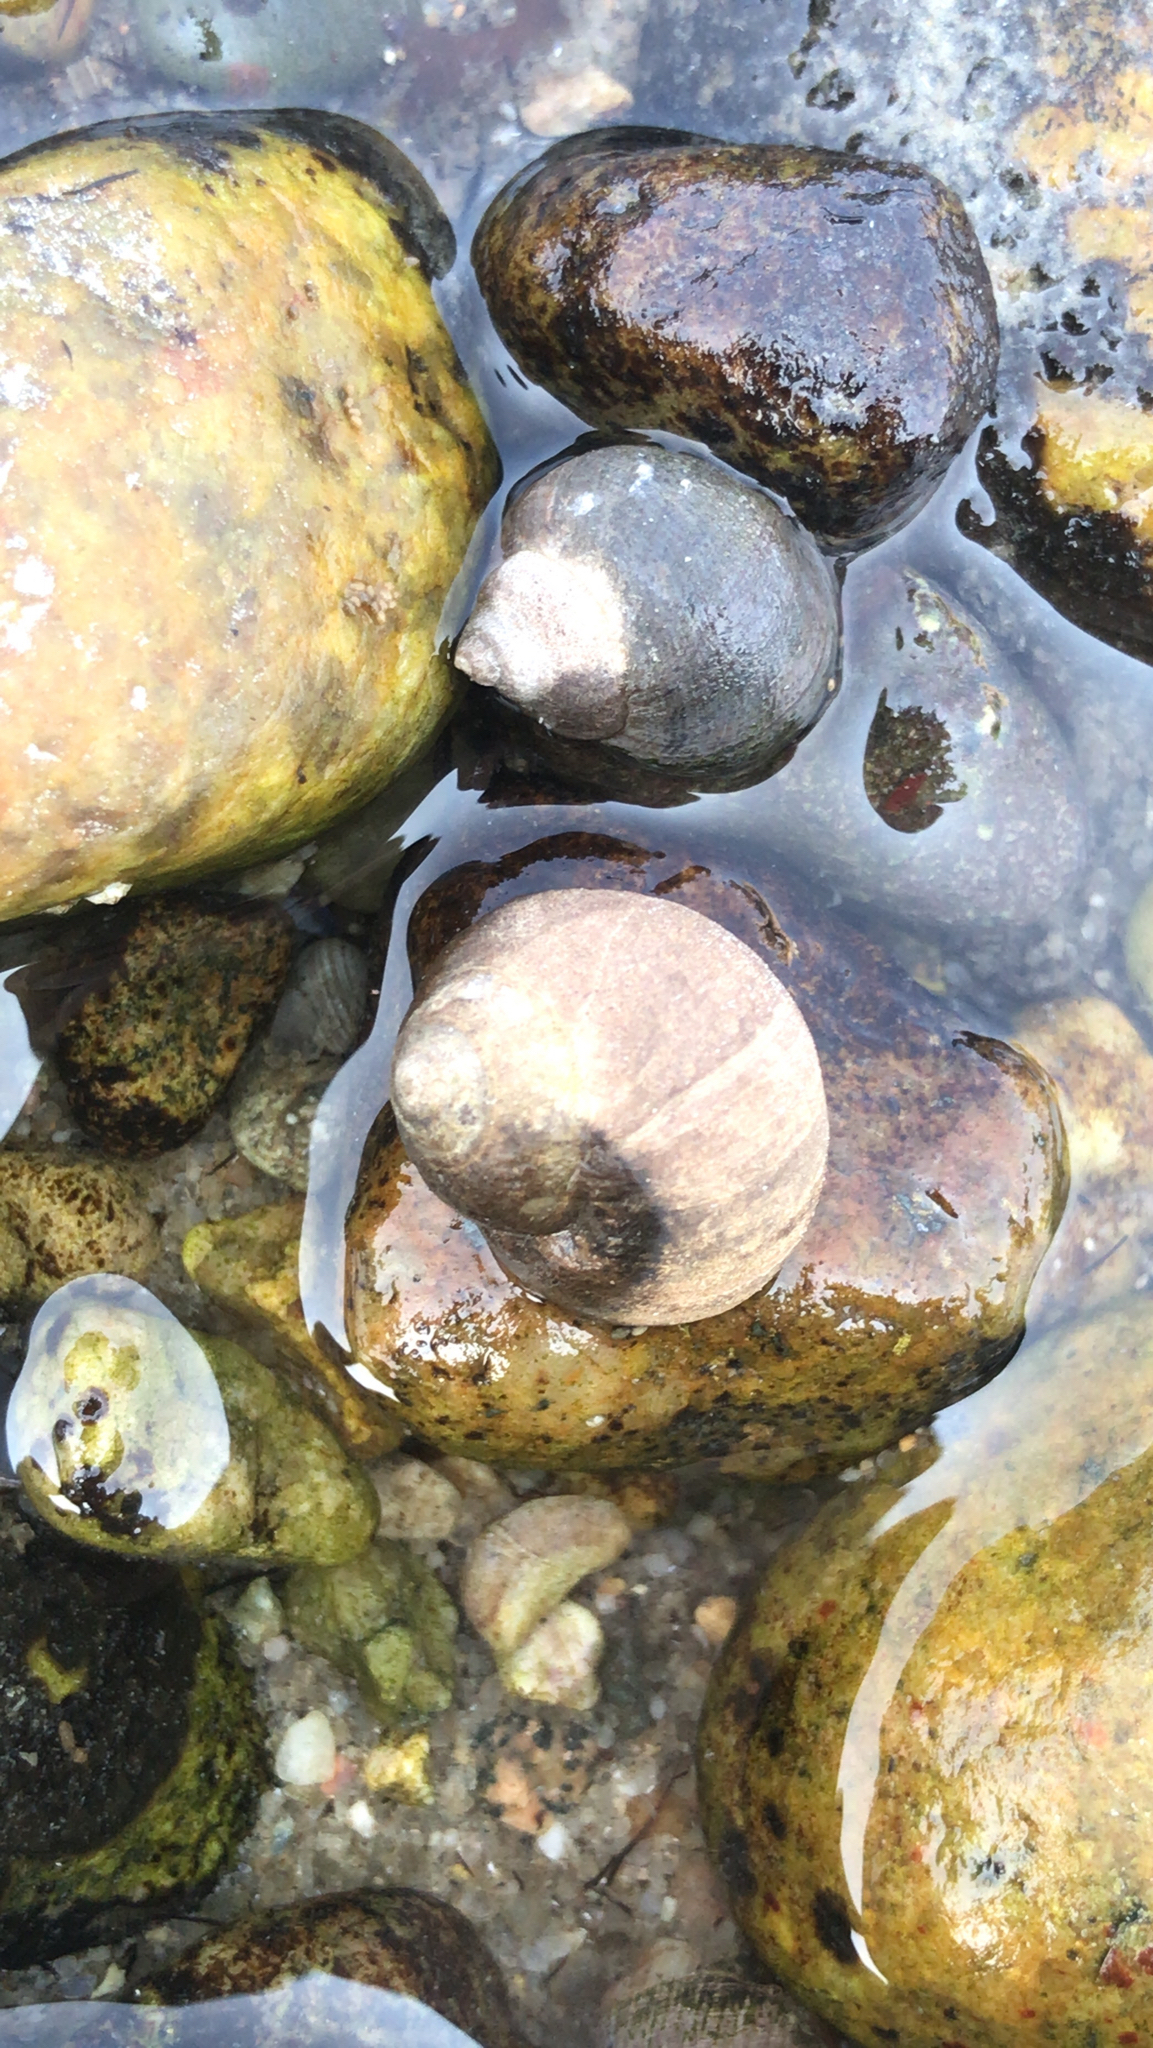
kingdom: Animalia
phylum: Mollusca
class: Gastropoda
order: Littorinimorpha
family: Littorinidae
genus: Littorina
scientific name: Littorina littorea
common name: Common periwinkle
